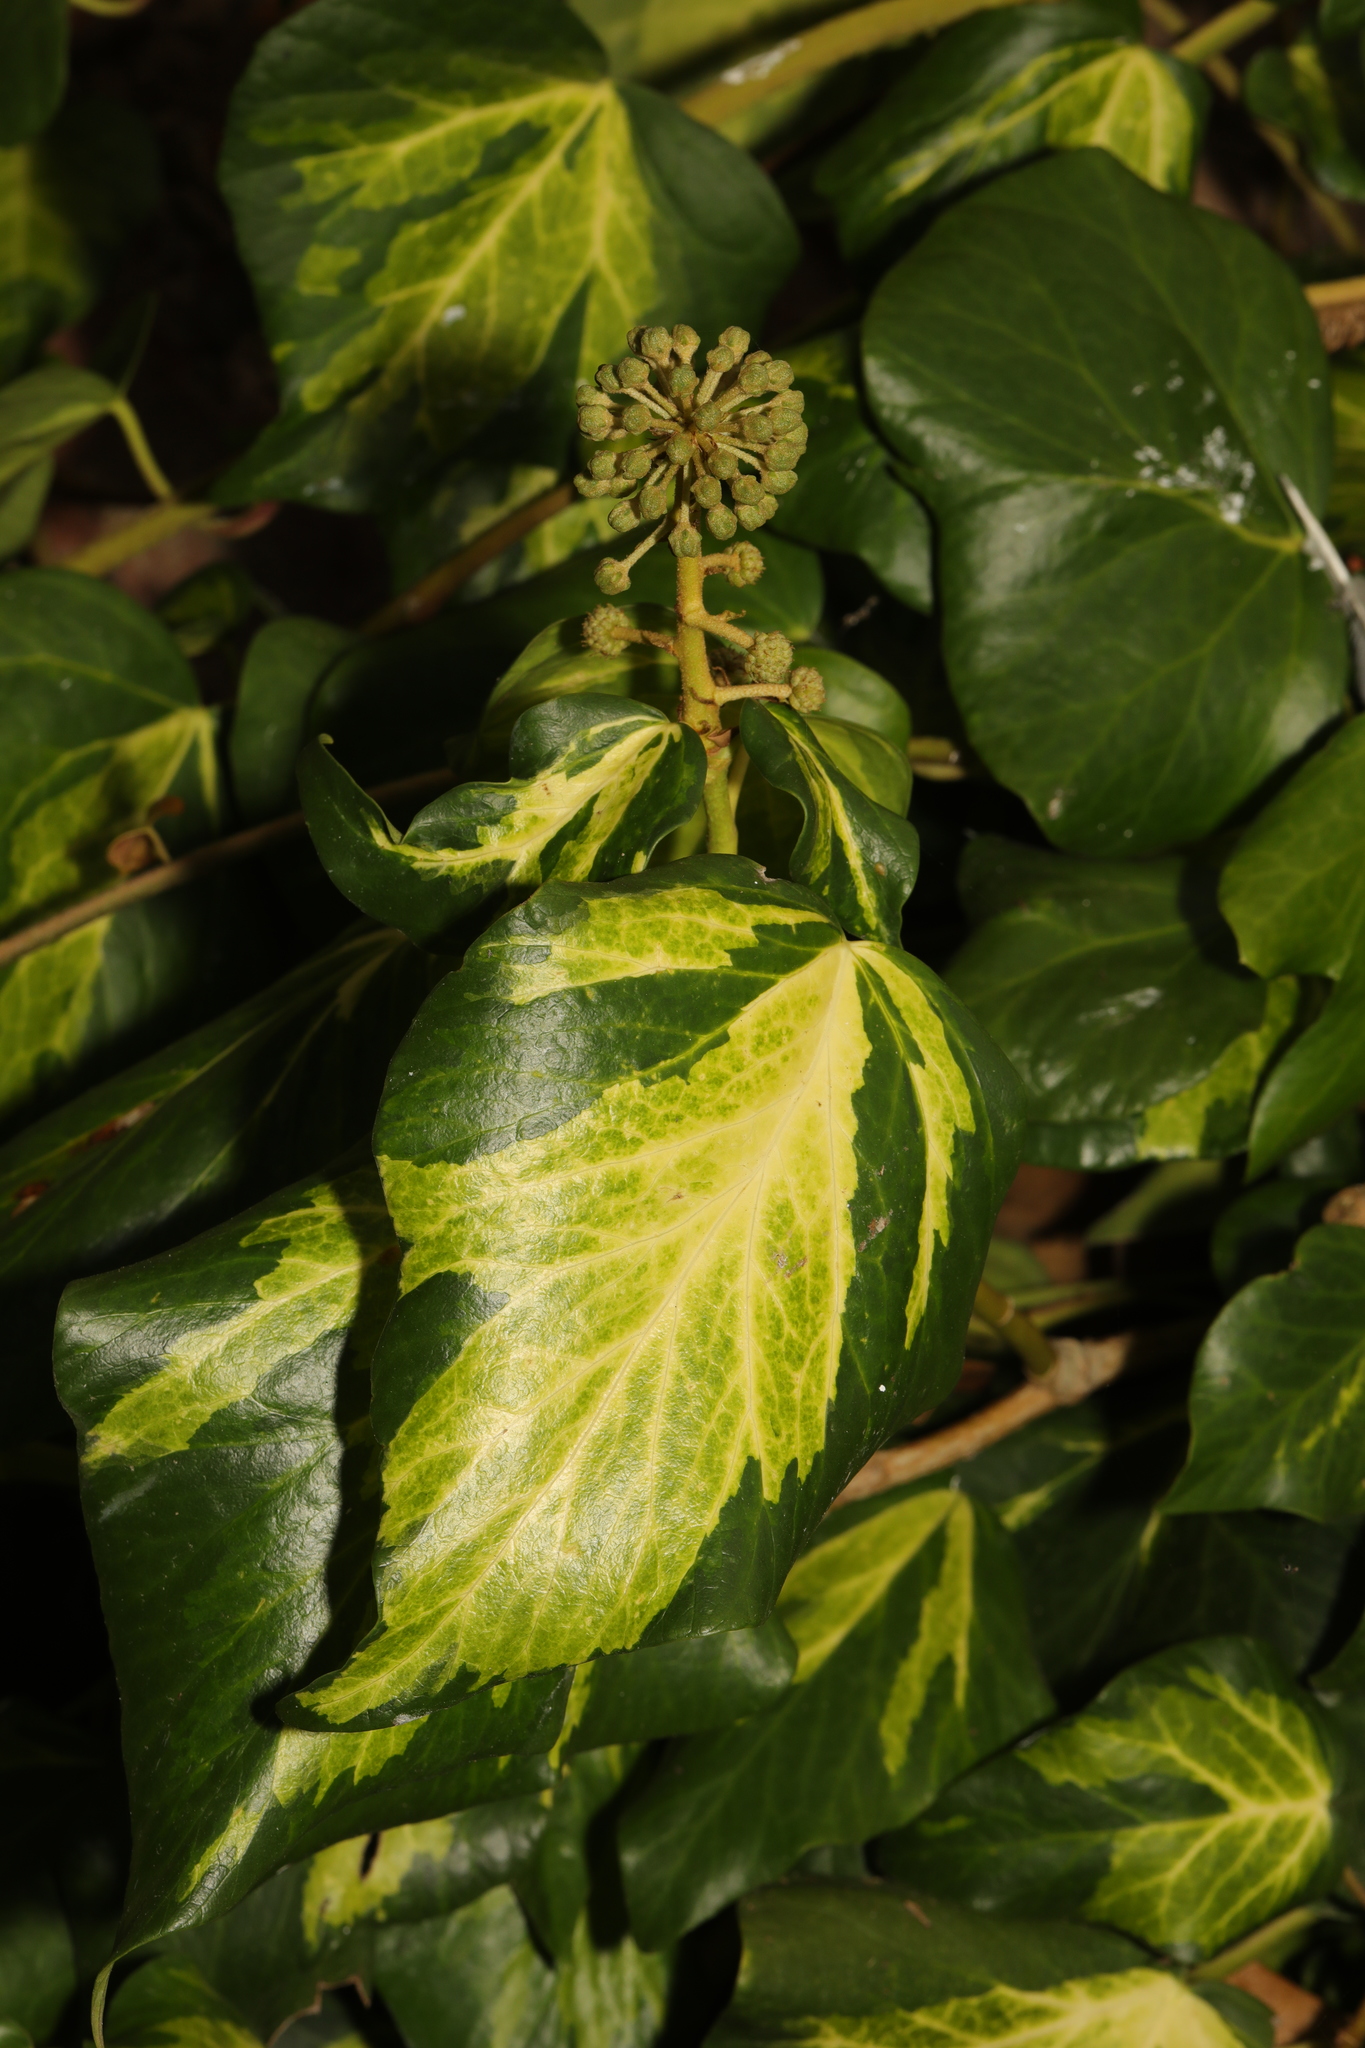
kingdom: Plantae
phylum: Tracheophyta
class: Magnoliopsida
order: Apiales
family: Araliaceae
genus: Hedera
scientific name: Hedera colchica
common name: Persian ivy
